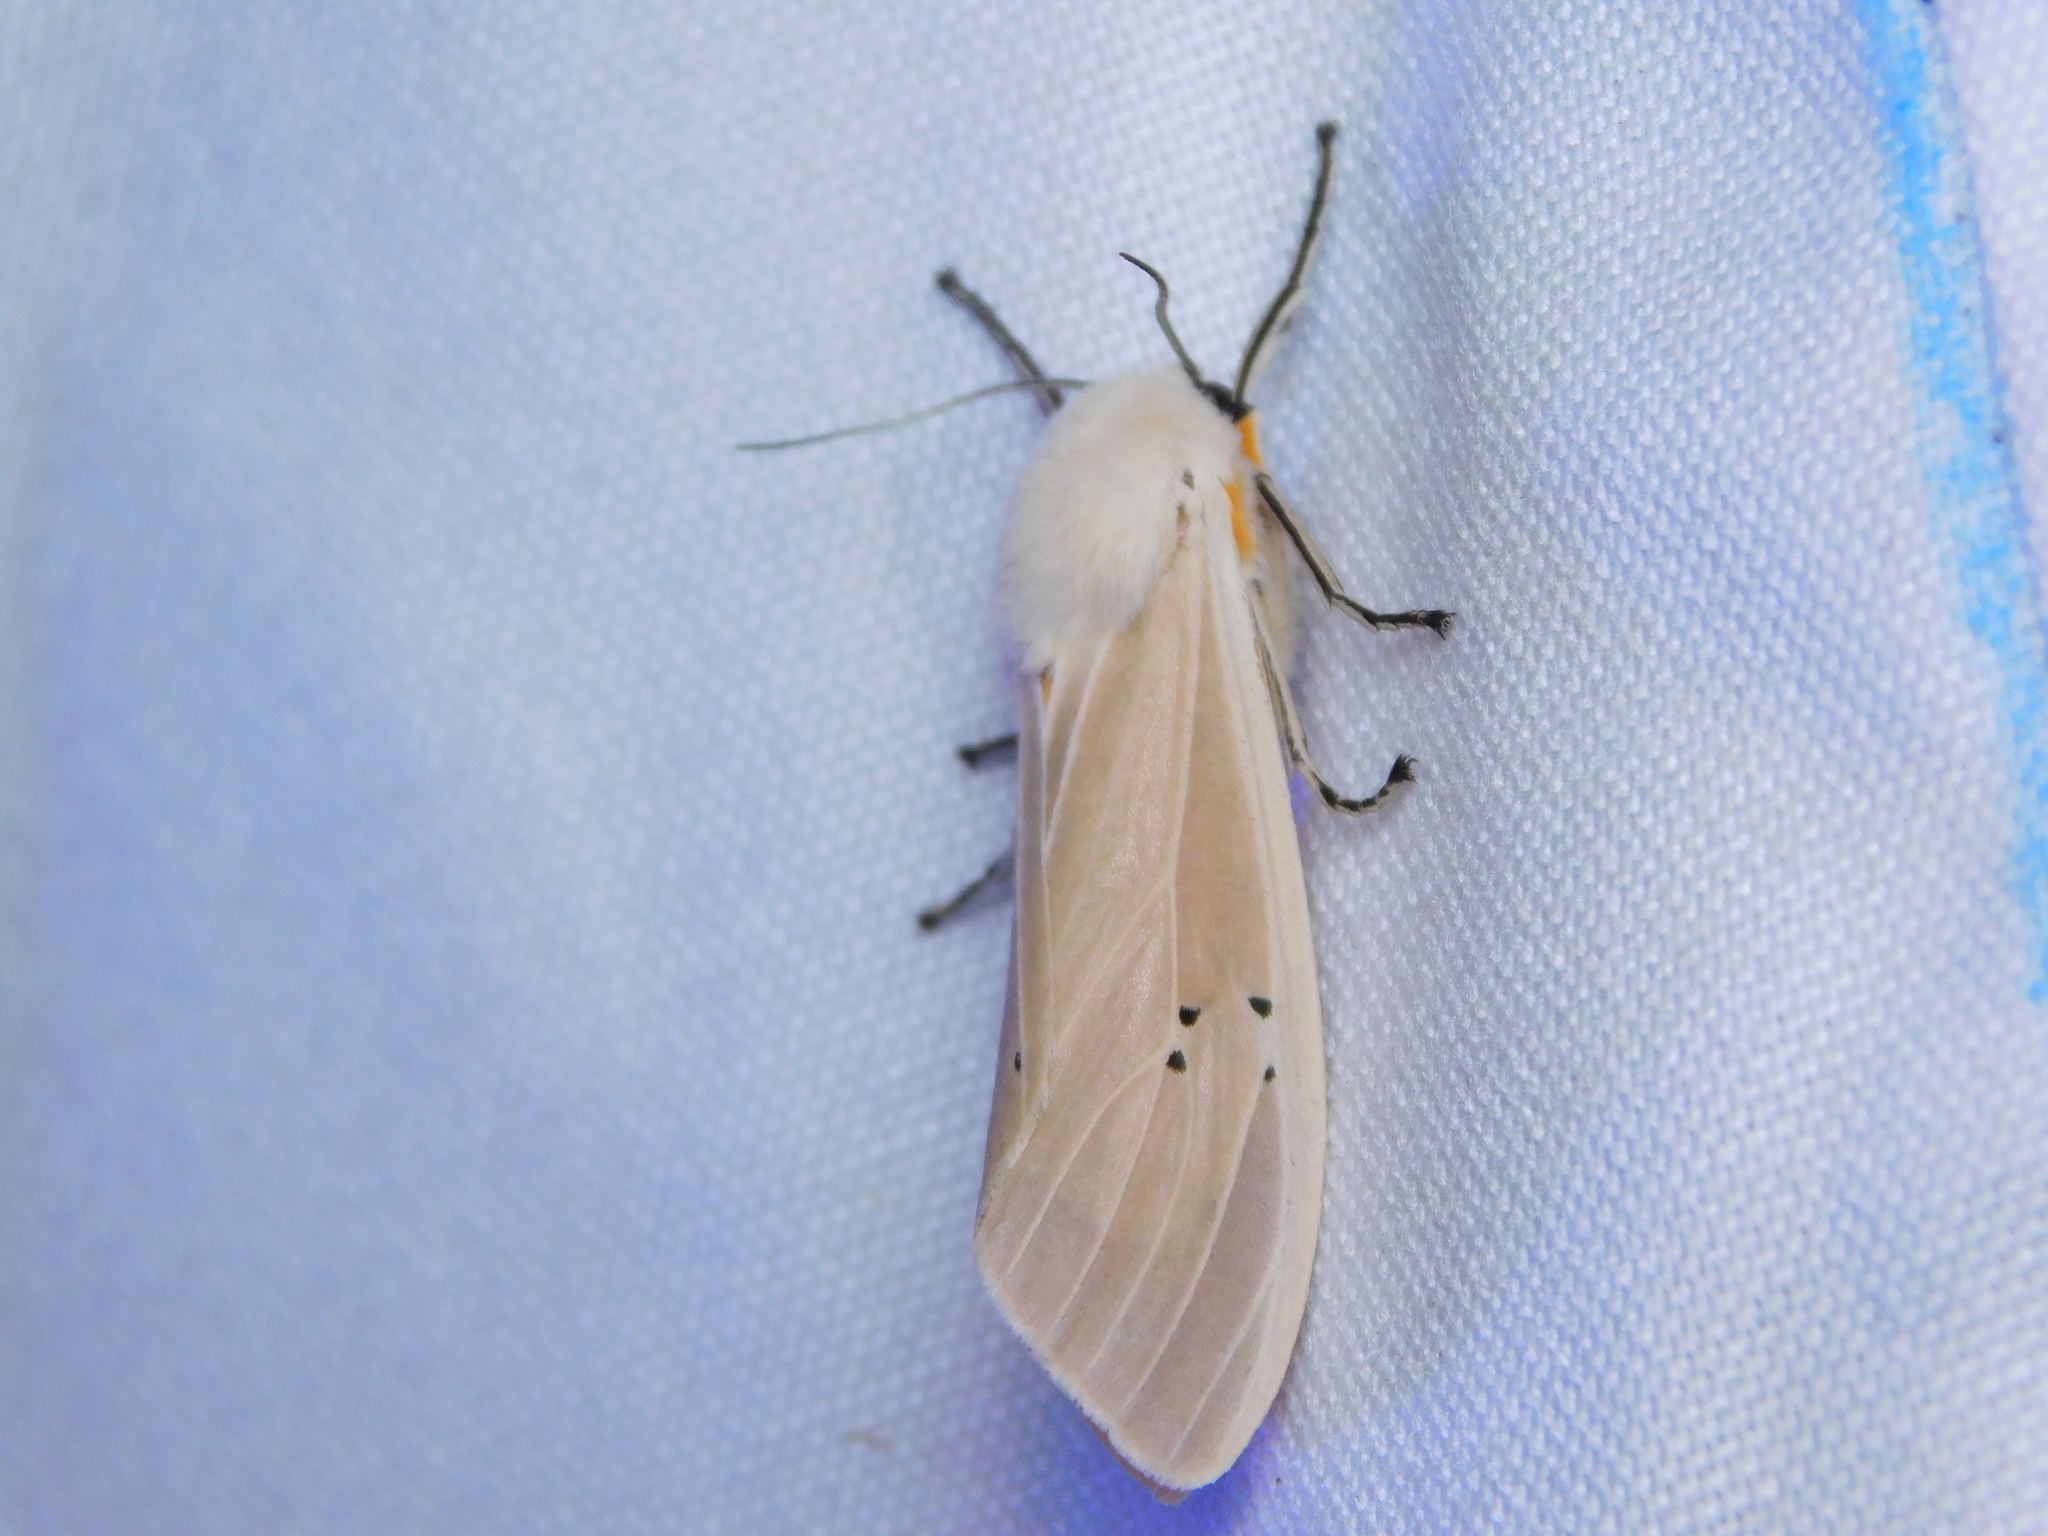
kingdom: Animalia
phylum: Arthropoda
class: Insecta
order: Lepidoptera
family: Erebidae
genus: Creatonotos
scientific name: Creatonotos transiens
